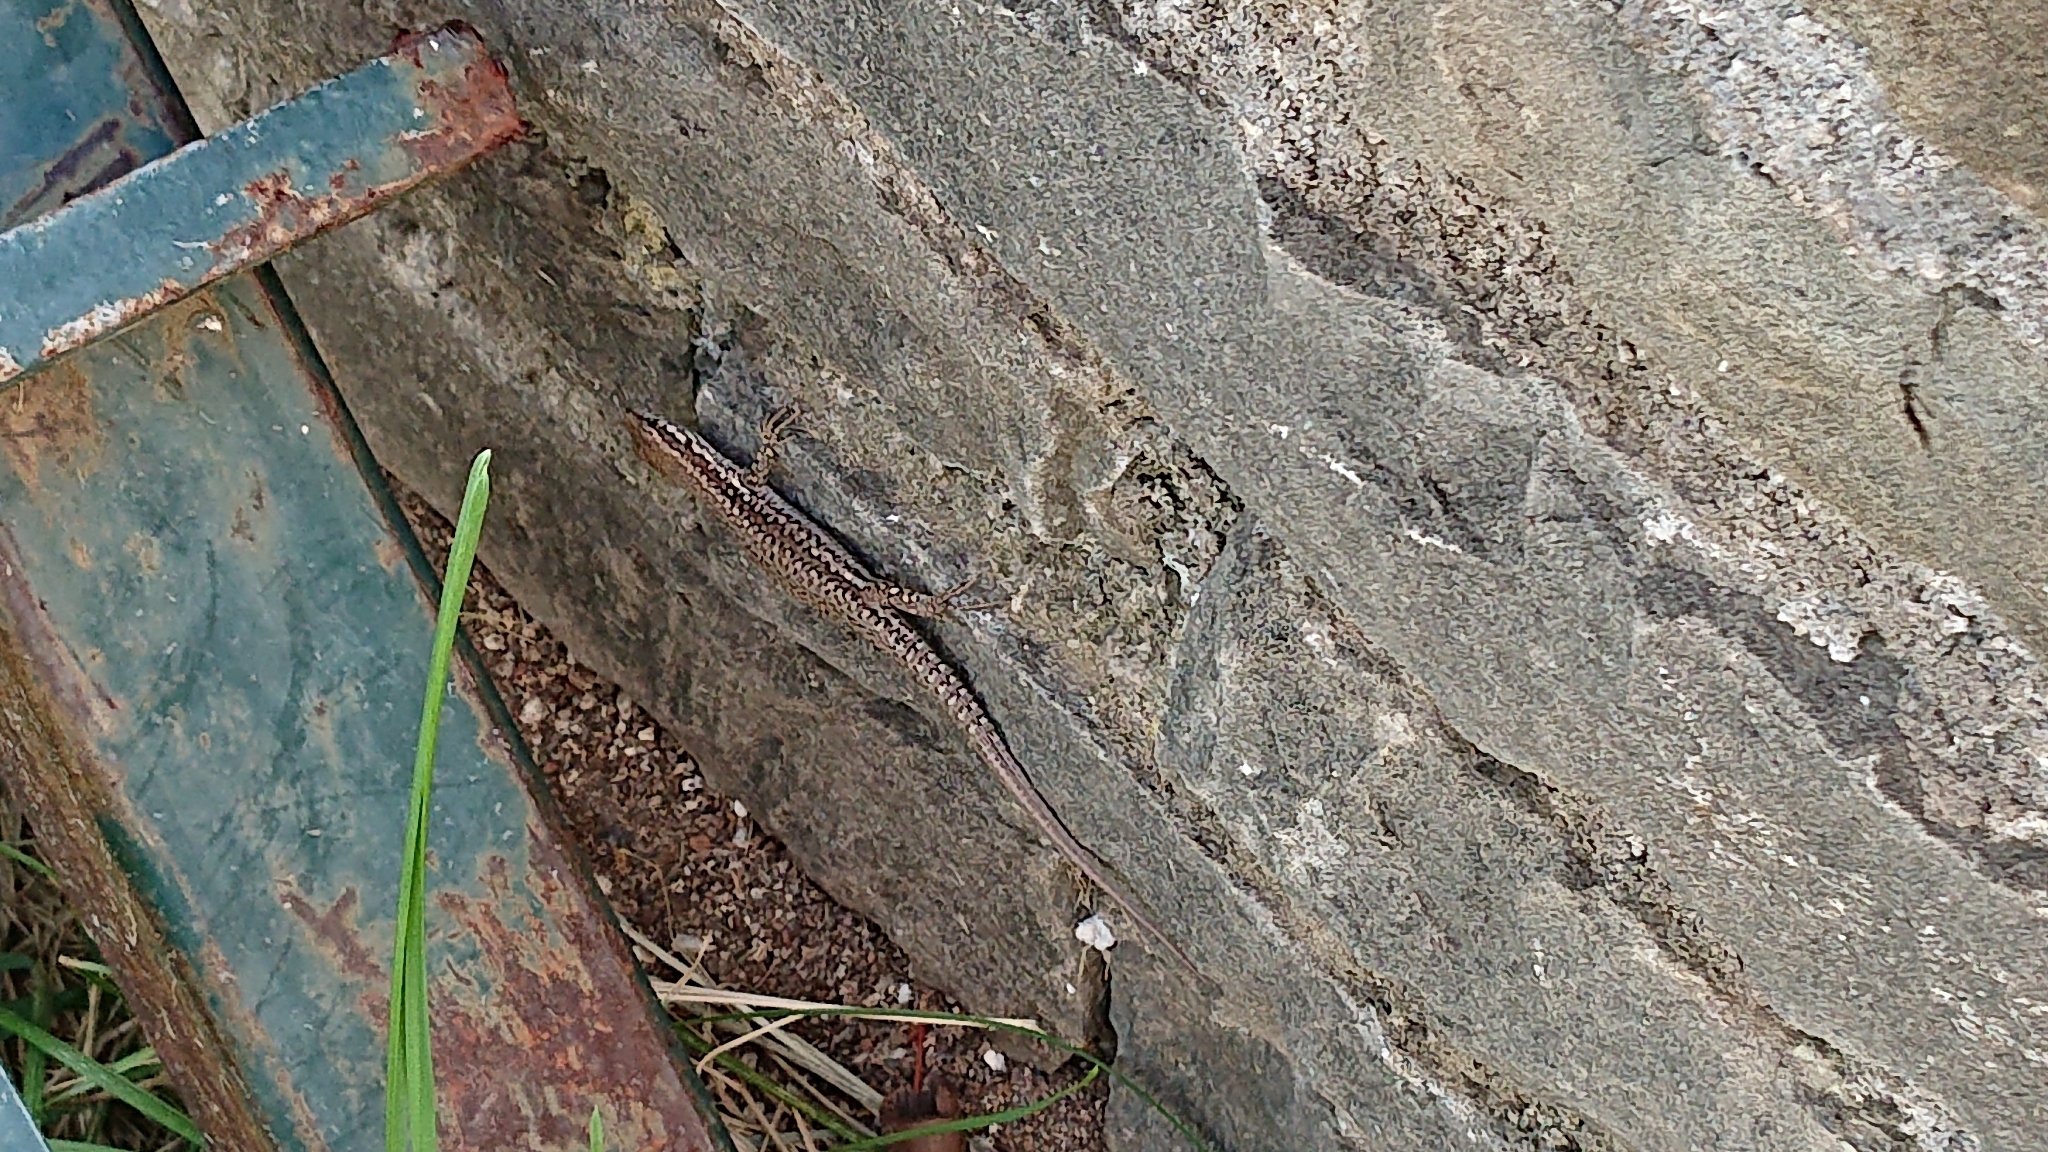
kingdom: Animalia
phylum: Chordata
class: Squamata
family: Lacertidae
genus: Podarcis
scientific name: Podarcis muralis
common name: Common wall lizard
